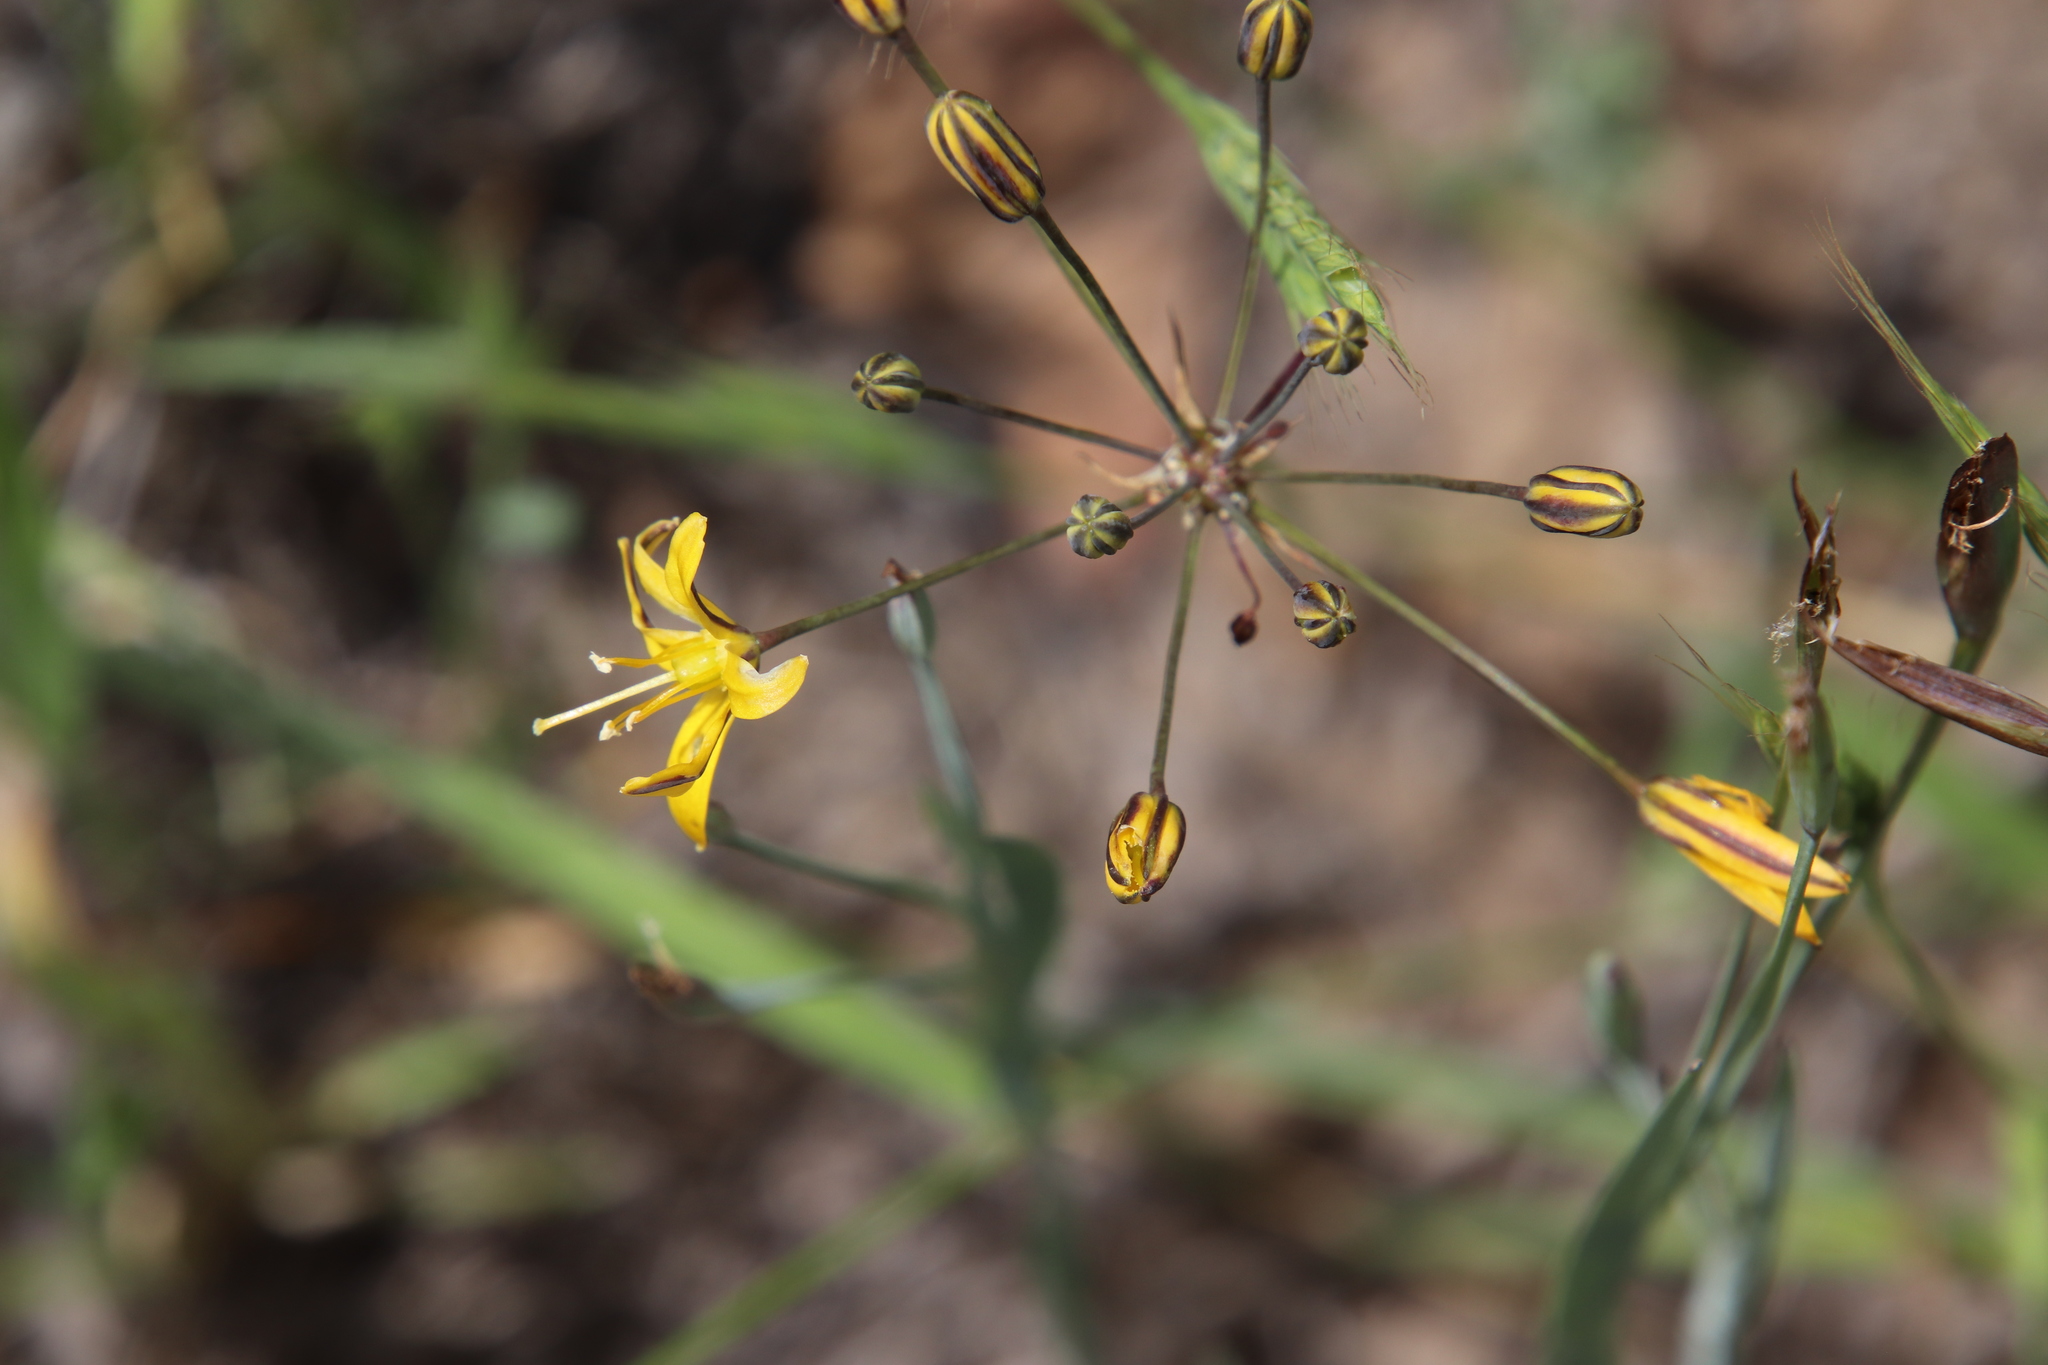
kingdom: Plantae
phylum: Tracheophyta
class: Liliopsida
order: Asparagales
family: Asparagaceae
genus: Bloomeria
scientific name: Bloomeria crocea
